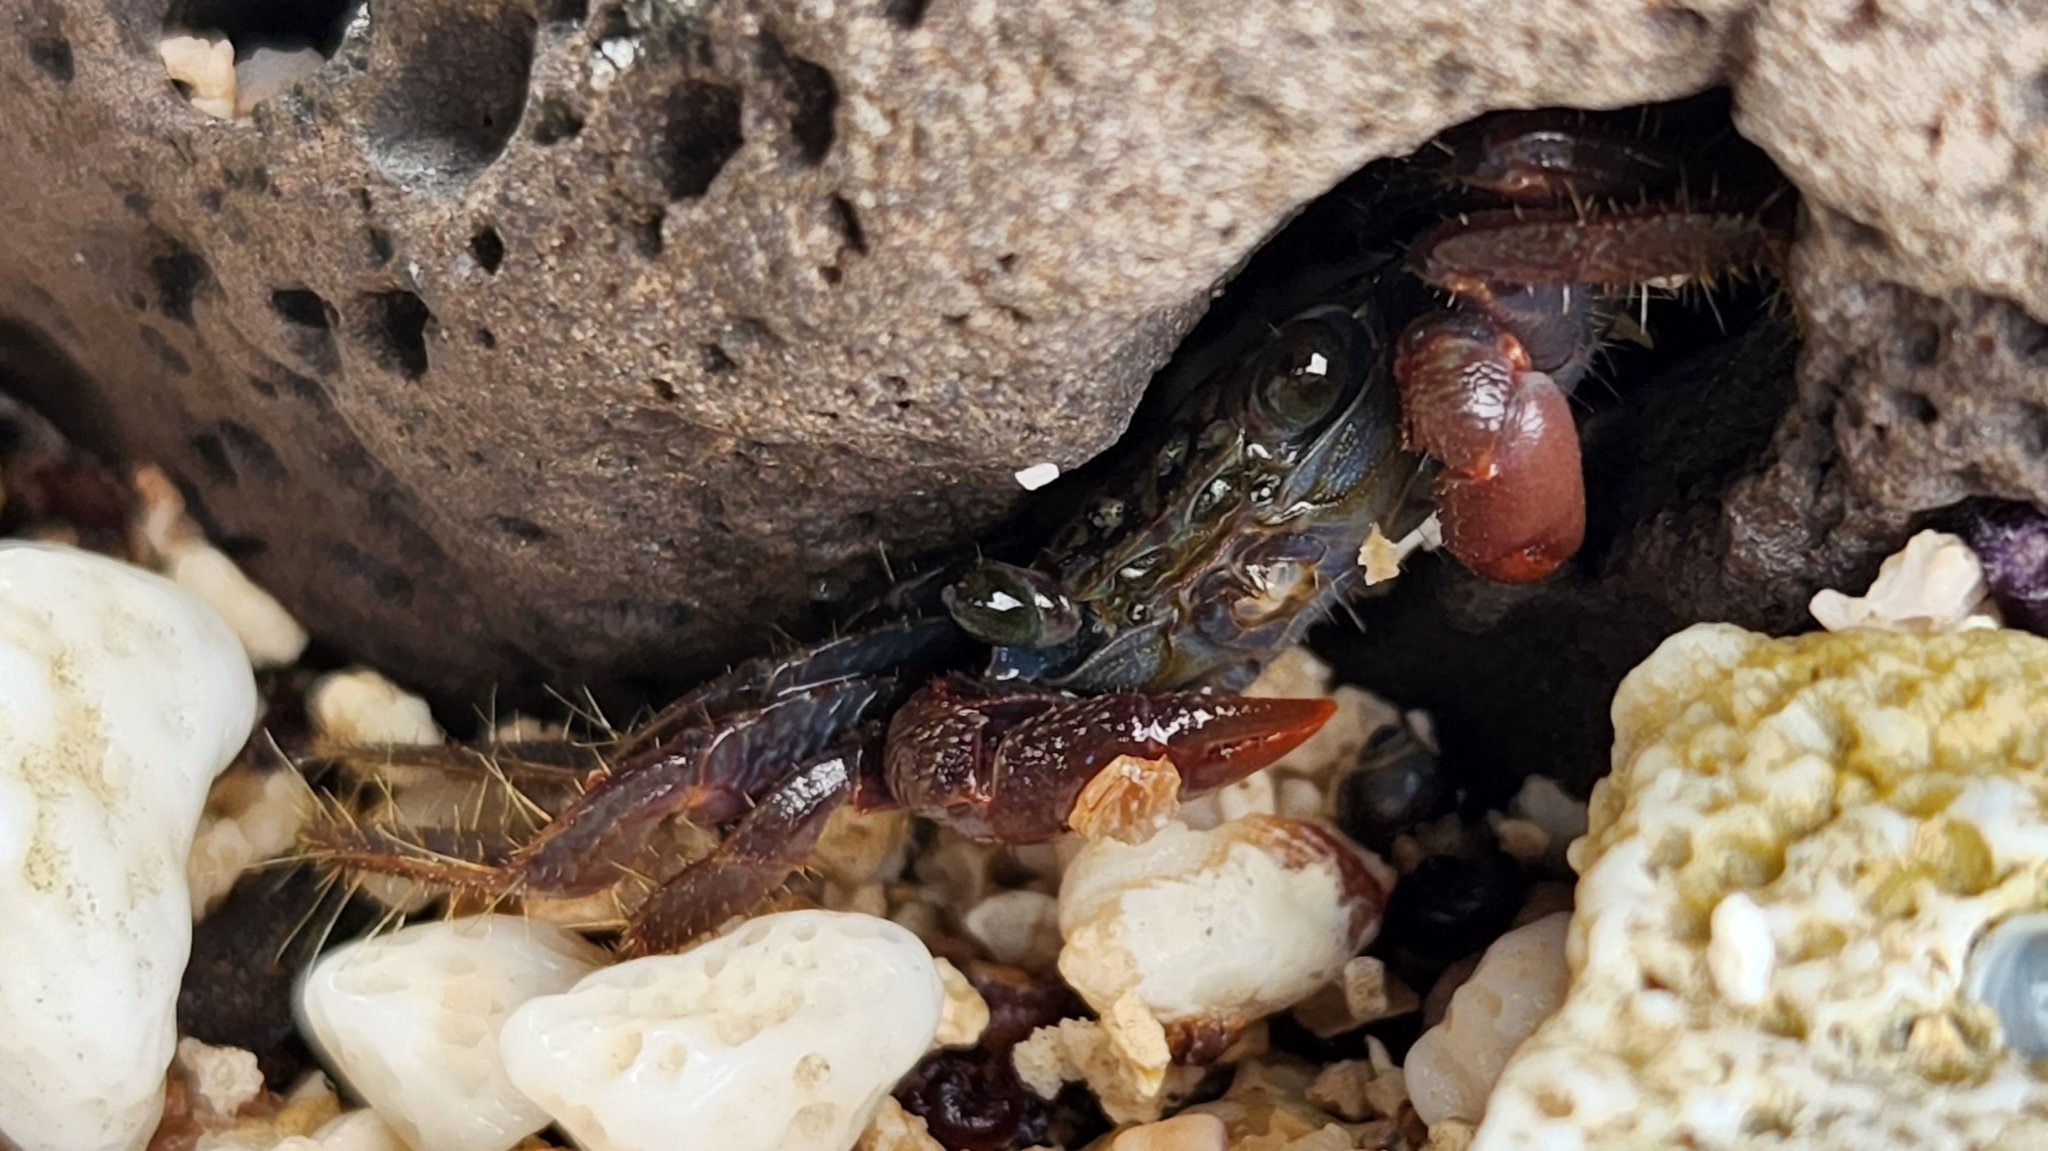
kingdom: Animalia
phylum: Arthropoda
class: Malacostraca
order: Decapoda
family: Grapsidae
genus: Geograpsus
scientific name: Geograpsus lividus
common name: Variegate shore crab
